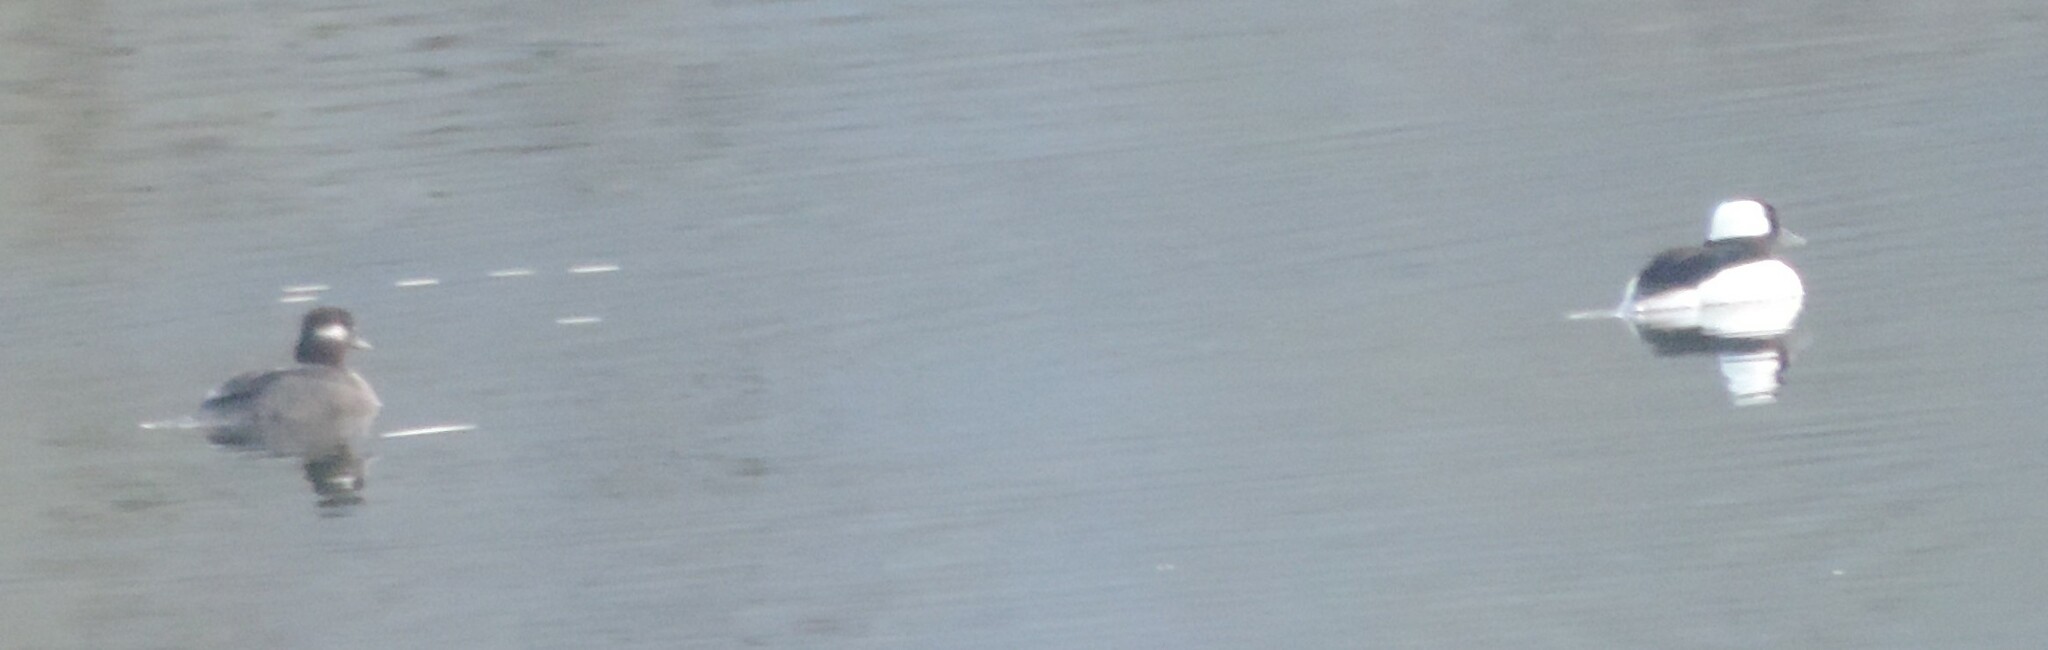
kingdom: Animalia
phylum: Chordata
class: Aves
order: Anseriformes
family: Anatidae
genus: Bucephala
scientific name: Bucephala albeola
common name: Bufflehead
